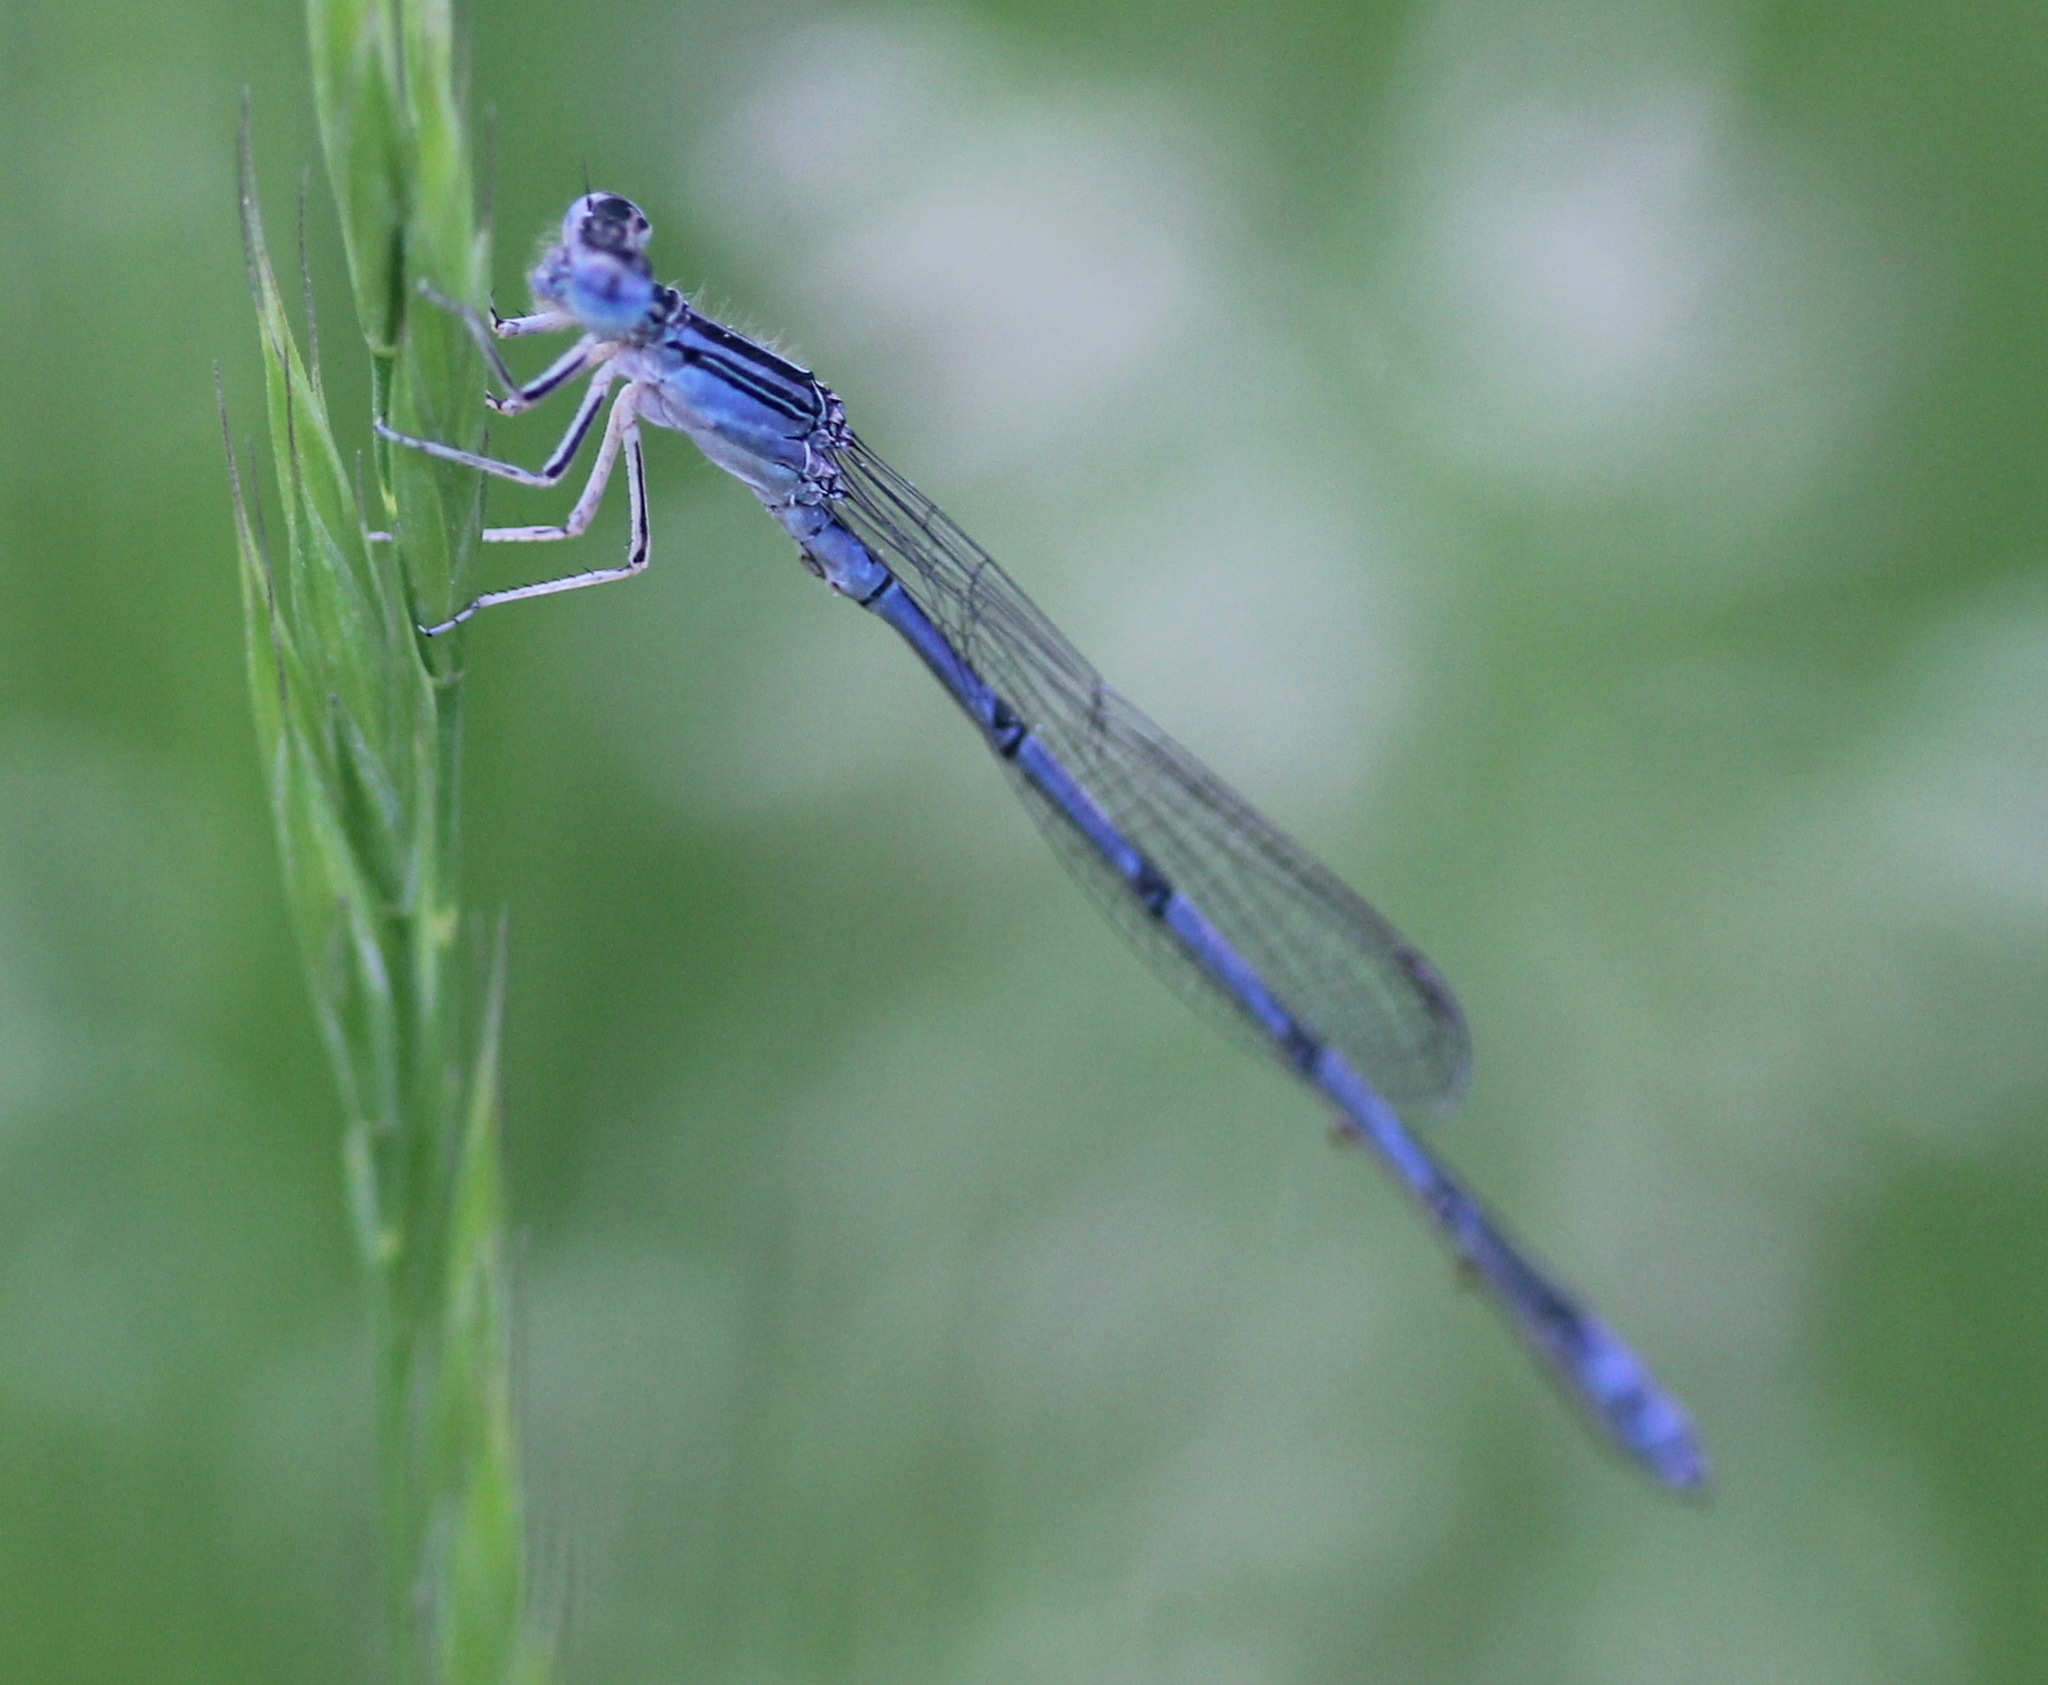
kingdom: Animalia
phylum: Arthropoda
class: Insecta
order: Odonata
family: Coenagrionidae
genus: Enallagma
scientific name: Enallagma basidens
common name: Double-striped bluet
